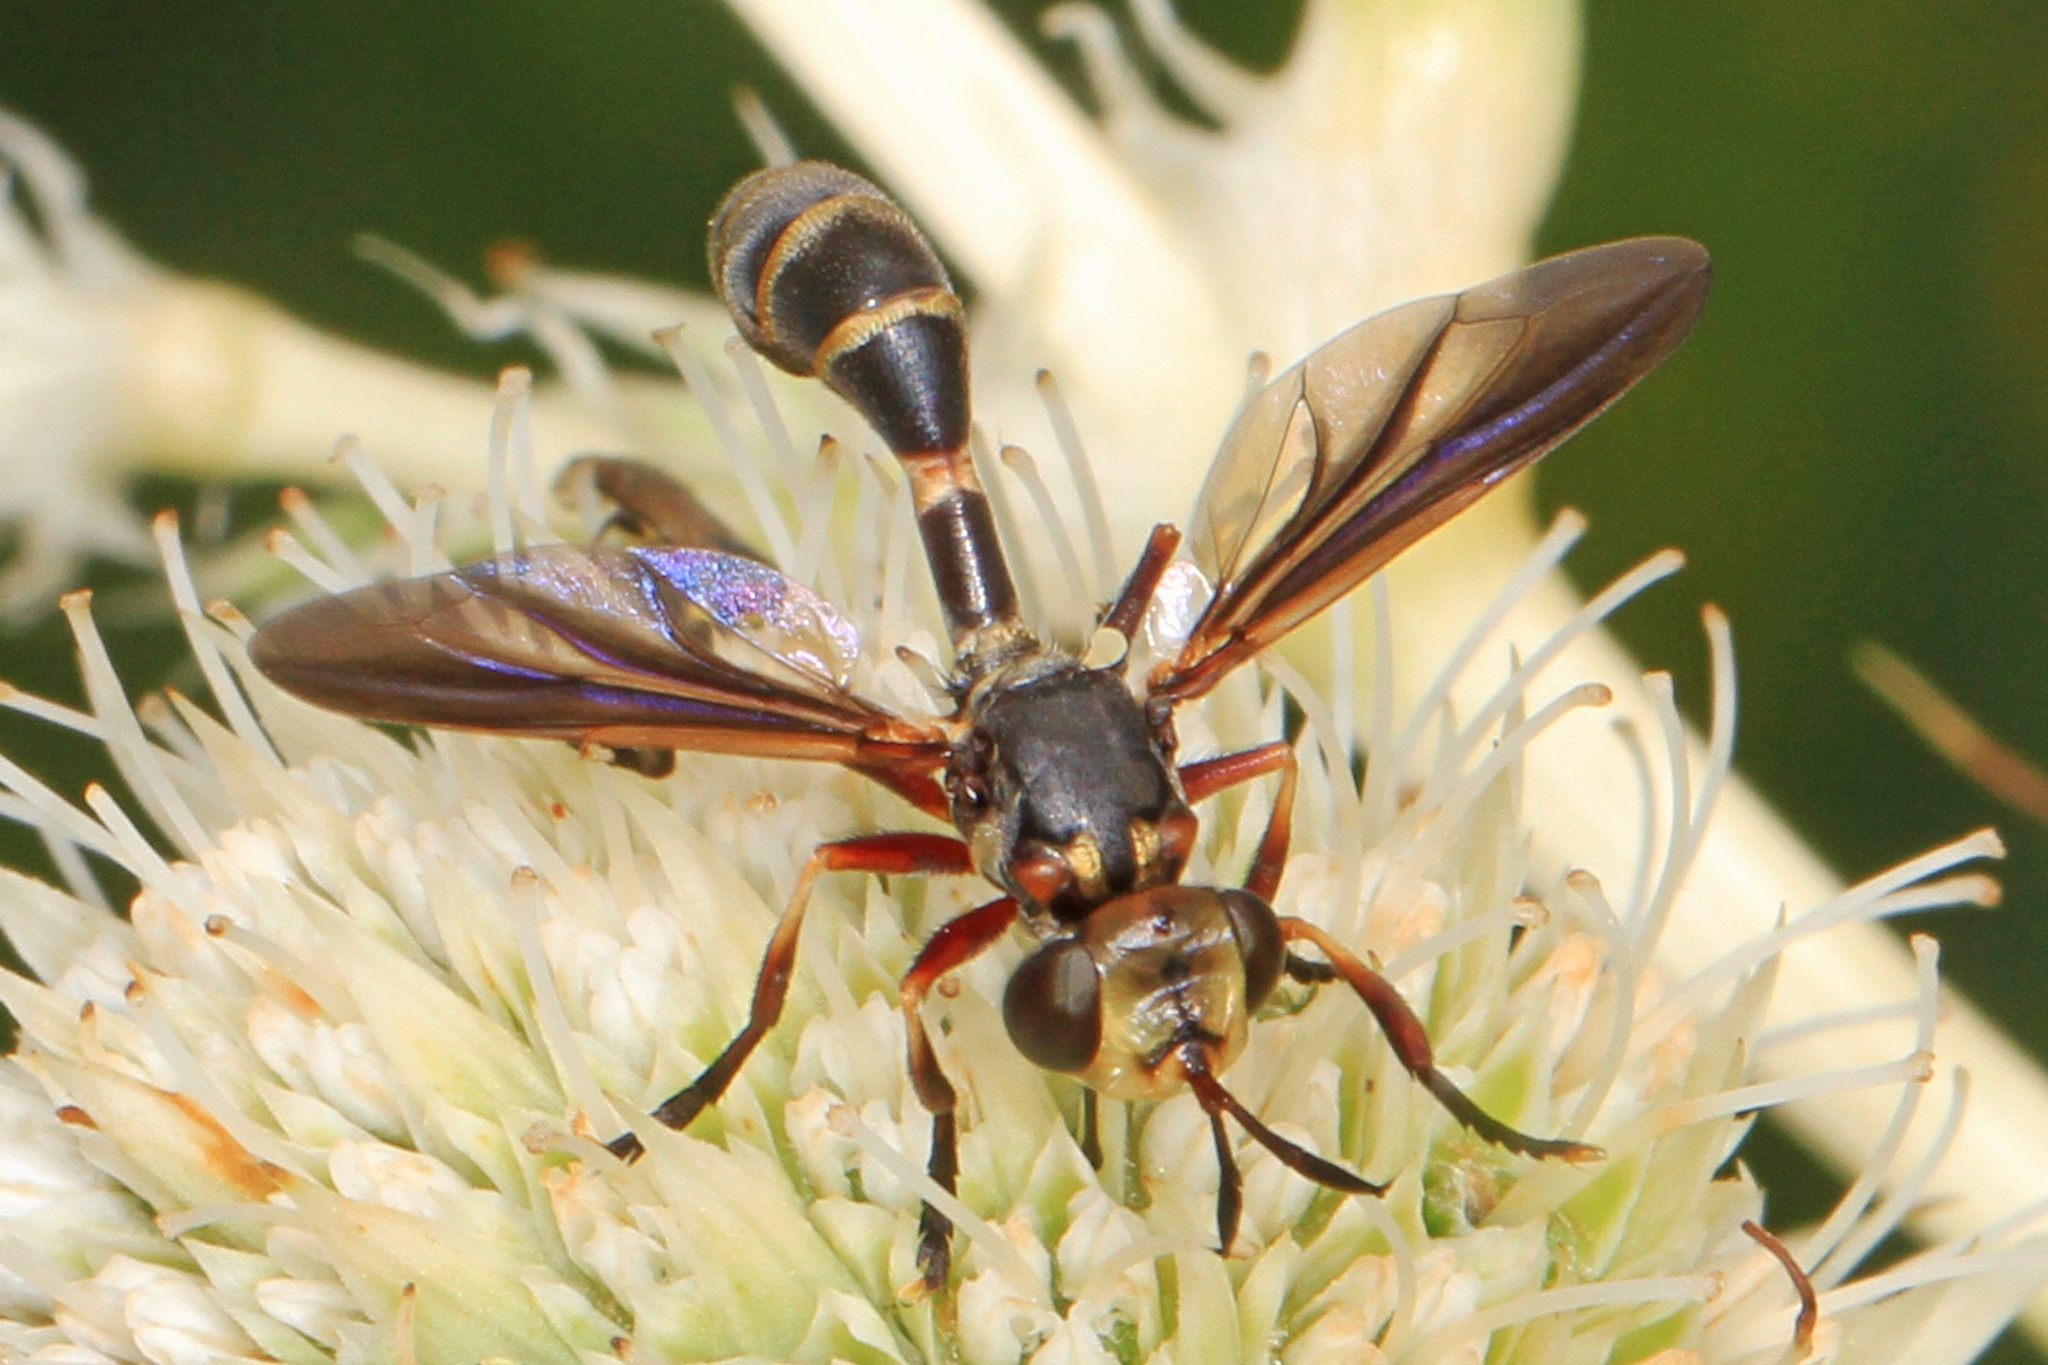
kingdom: Animalia
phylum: Arthropoda
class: Insecta
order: Diptera
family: Conopidae
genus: Pachyconops
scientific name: Pachyconops
